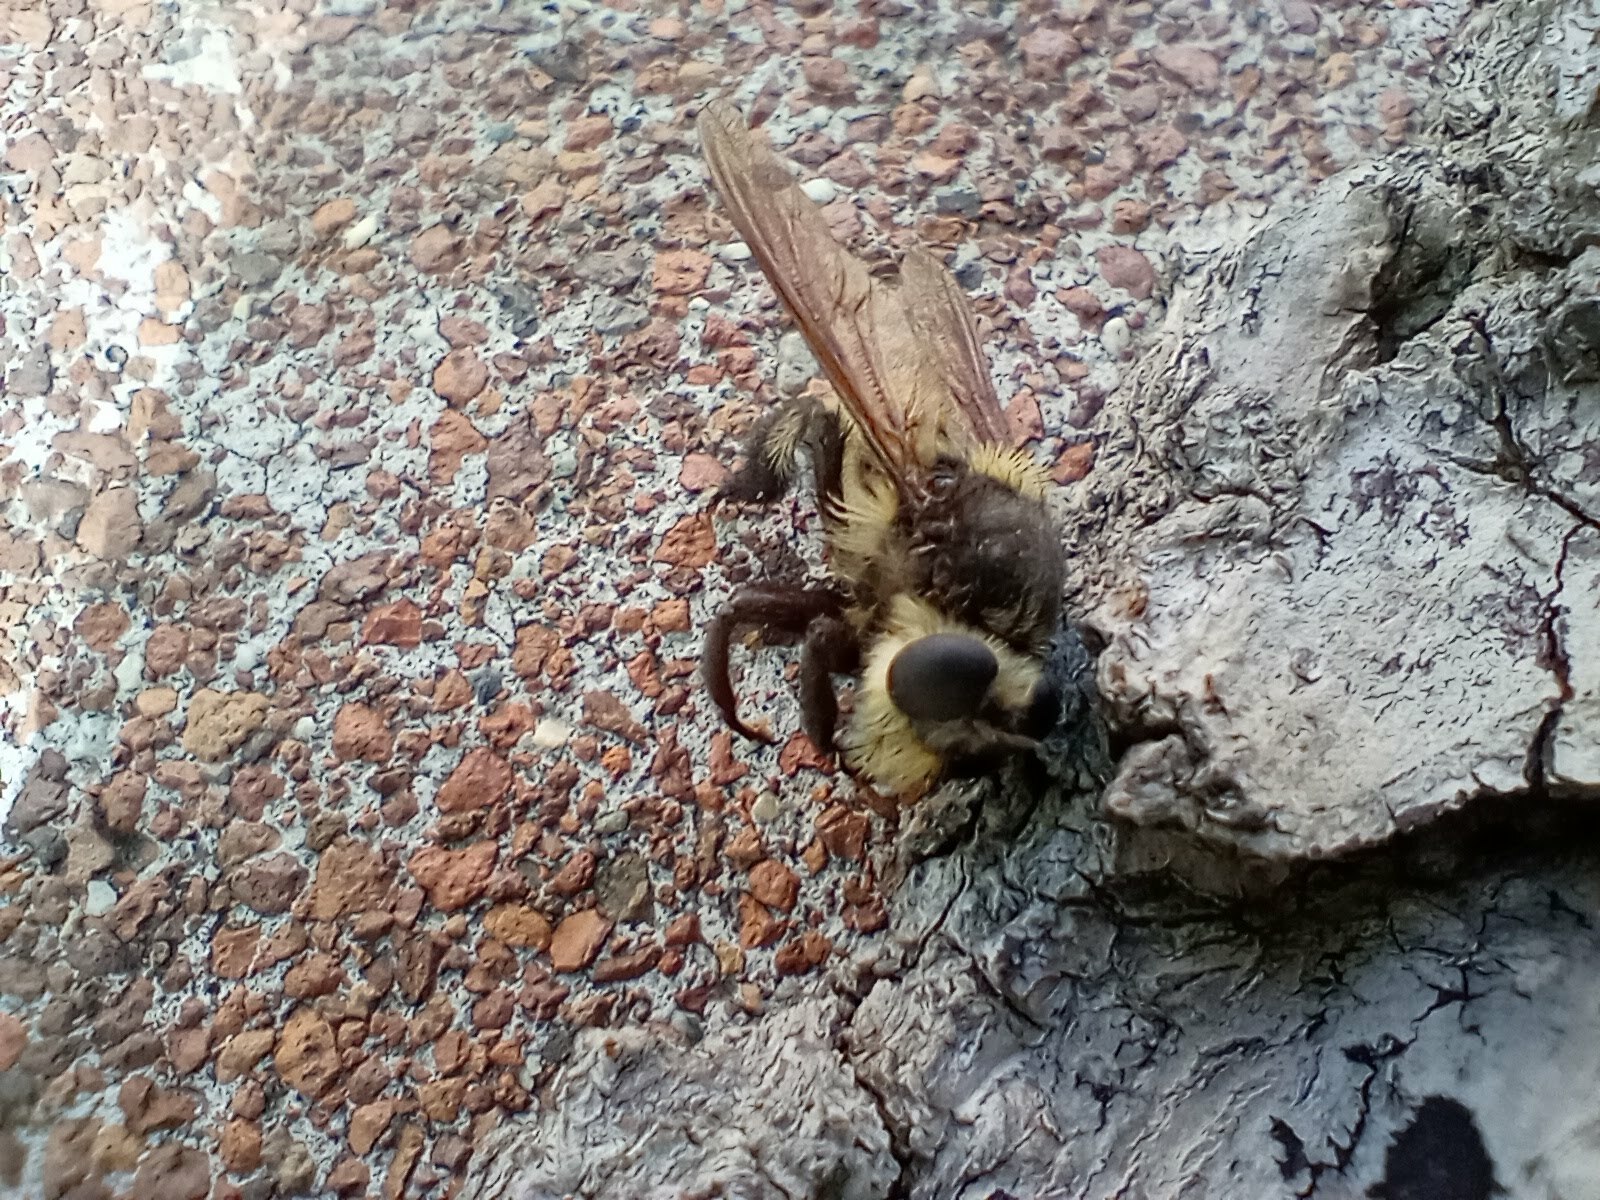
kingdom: Animalia
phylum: Arthropoda
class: Insecta
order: Diptera
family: Asilidae
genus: Mallophora
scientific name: Mallophora fautrix
